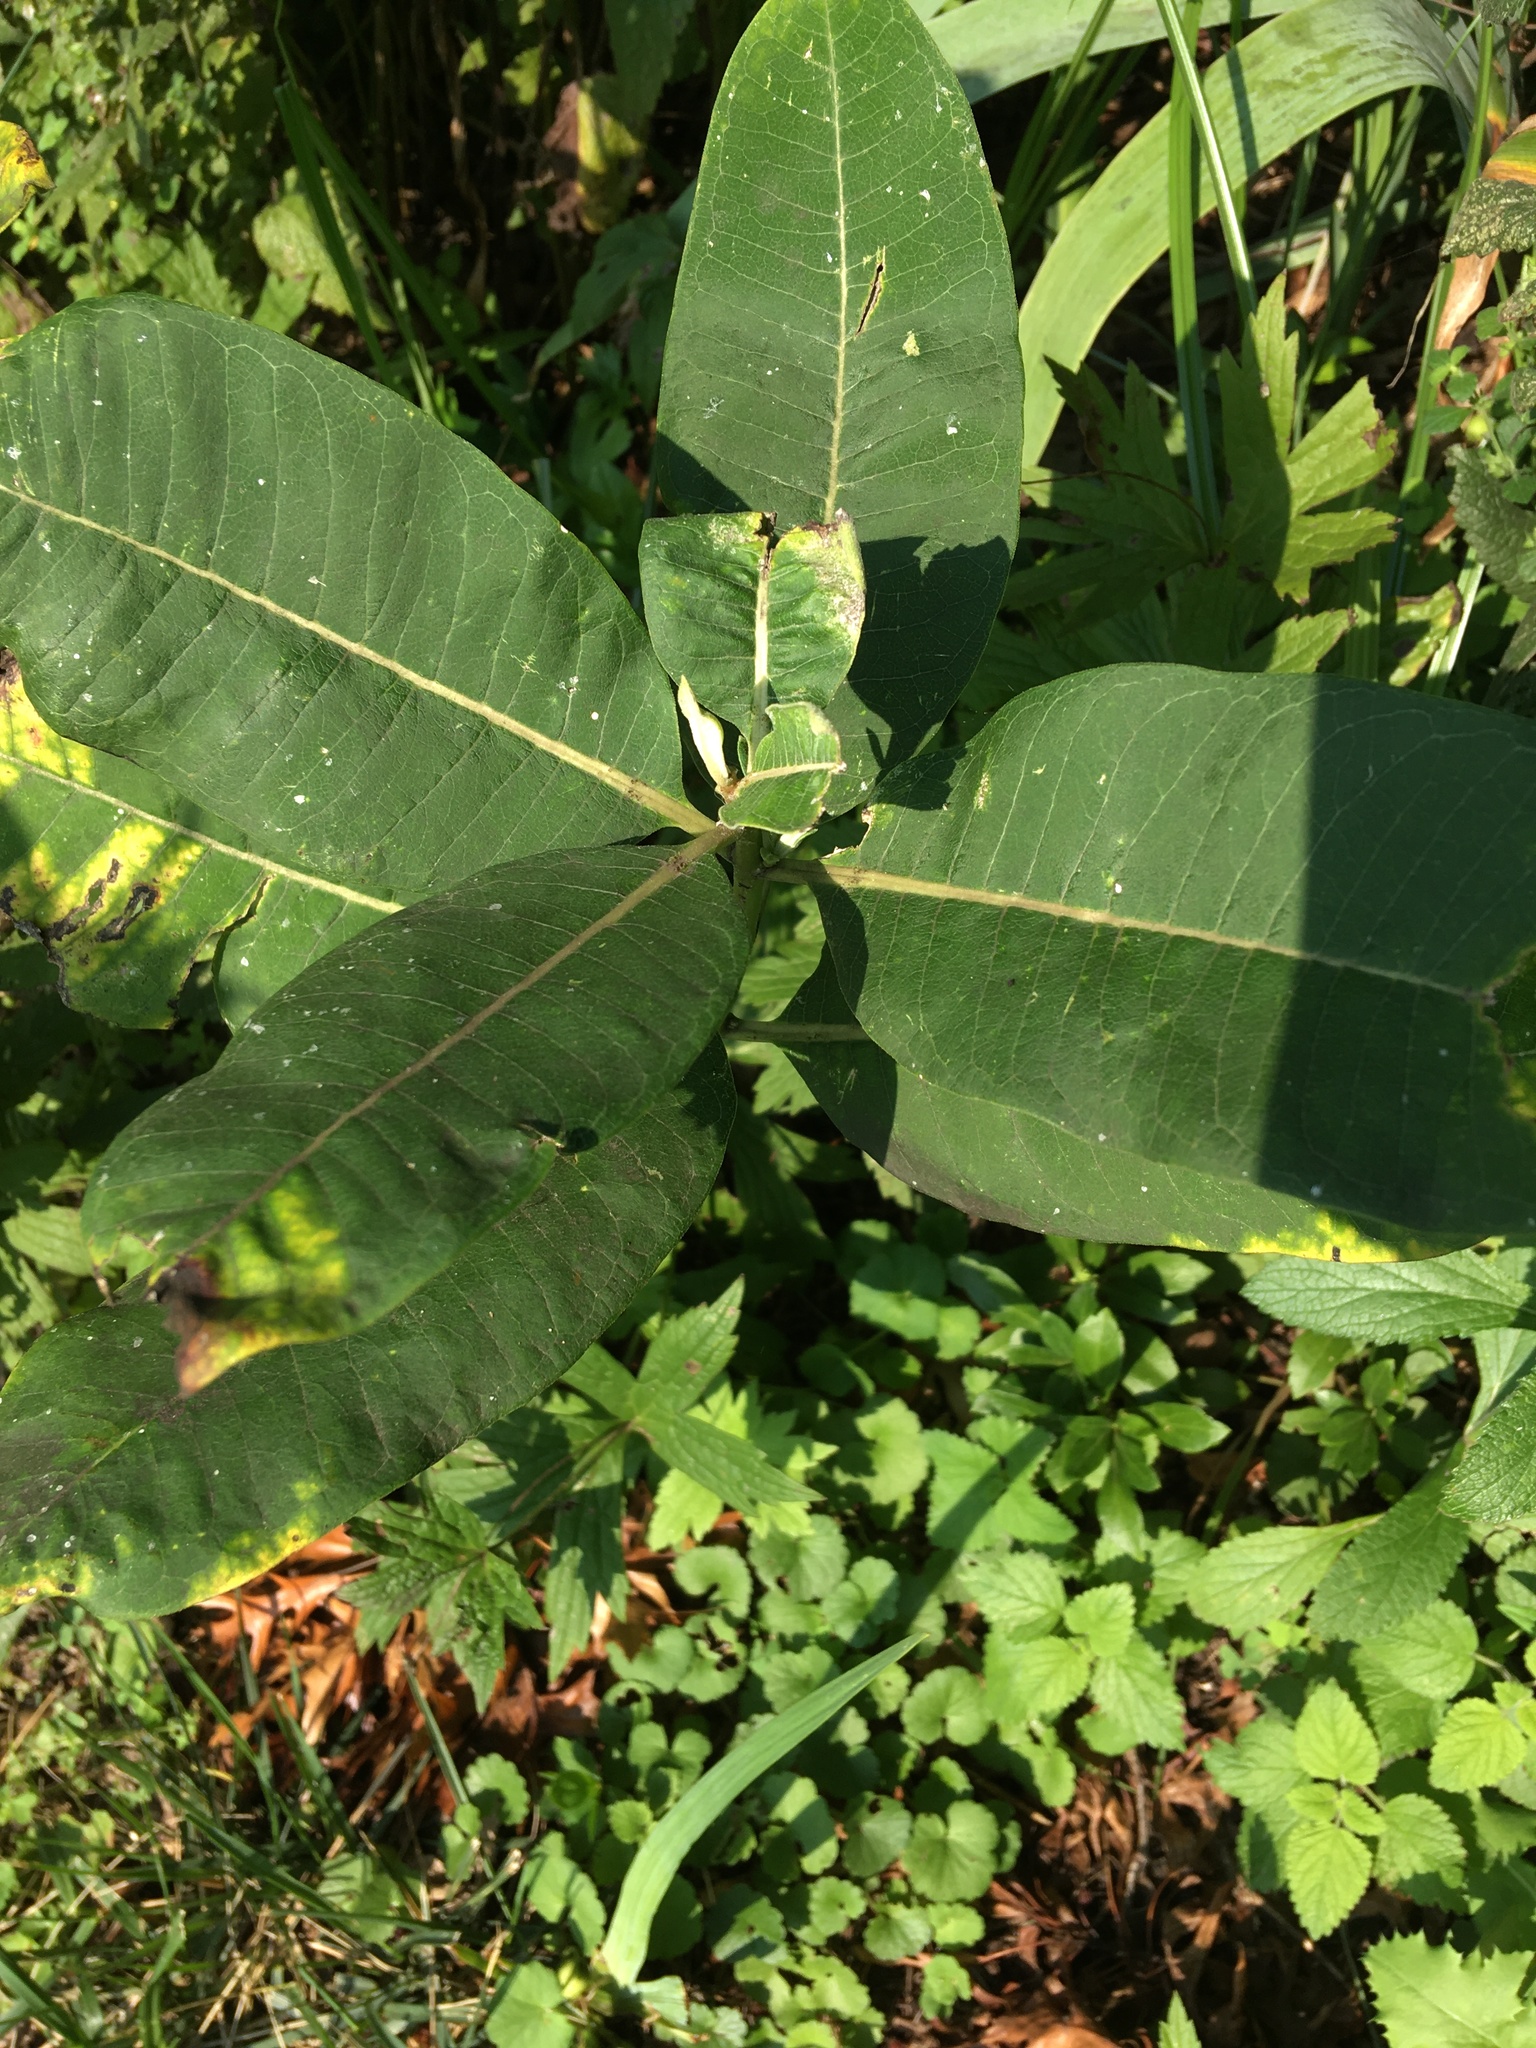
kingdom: Plantae
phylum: Tracheophyta
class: Magnoliopsida
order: Gentianales
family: Apocynaceae
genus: Asclepias
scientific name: Asclepias syriaca
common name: Common milkweed
